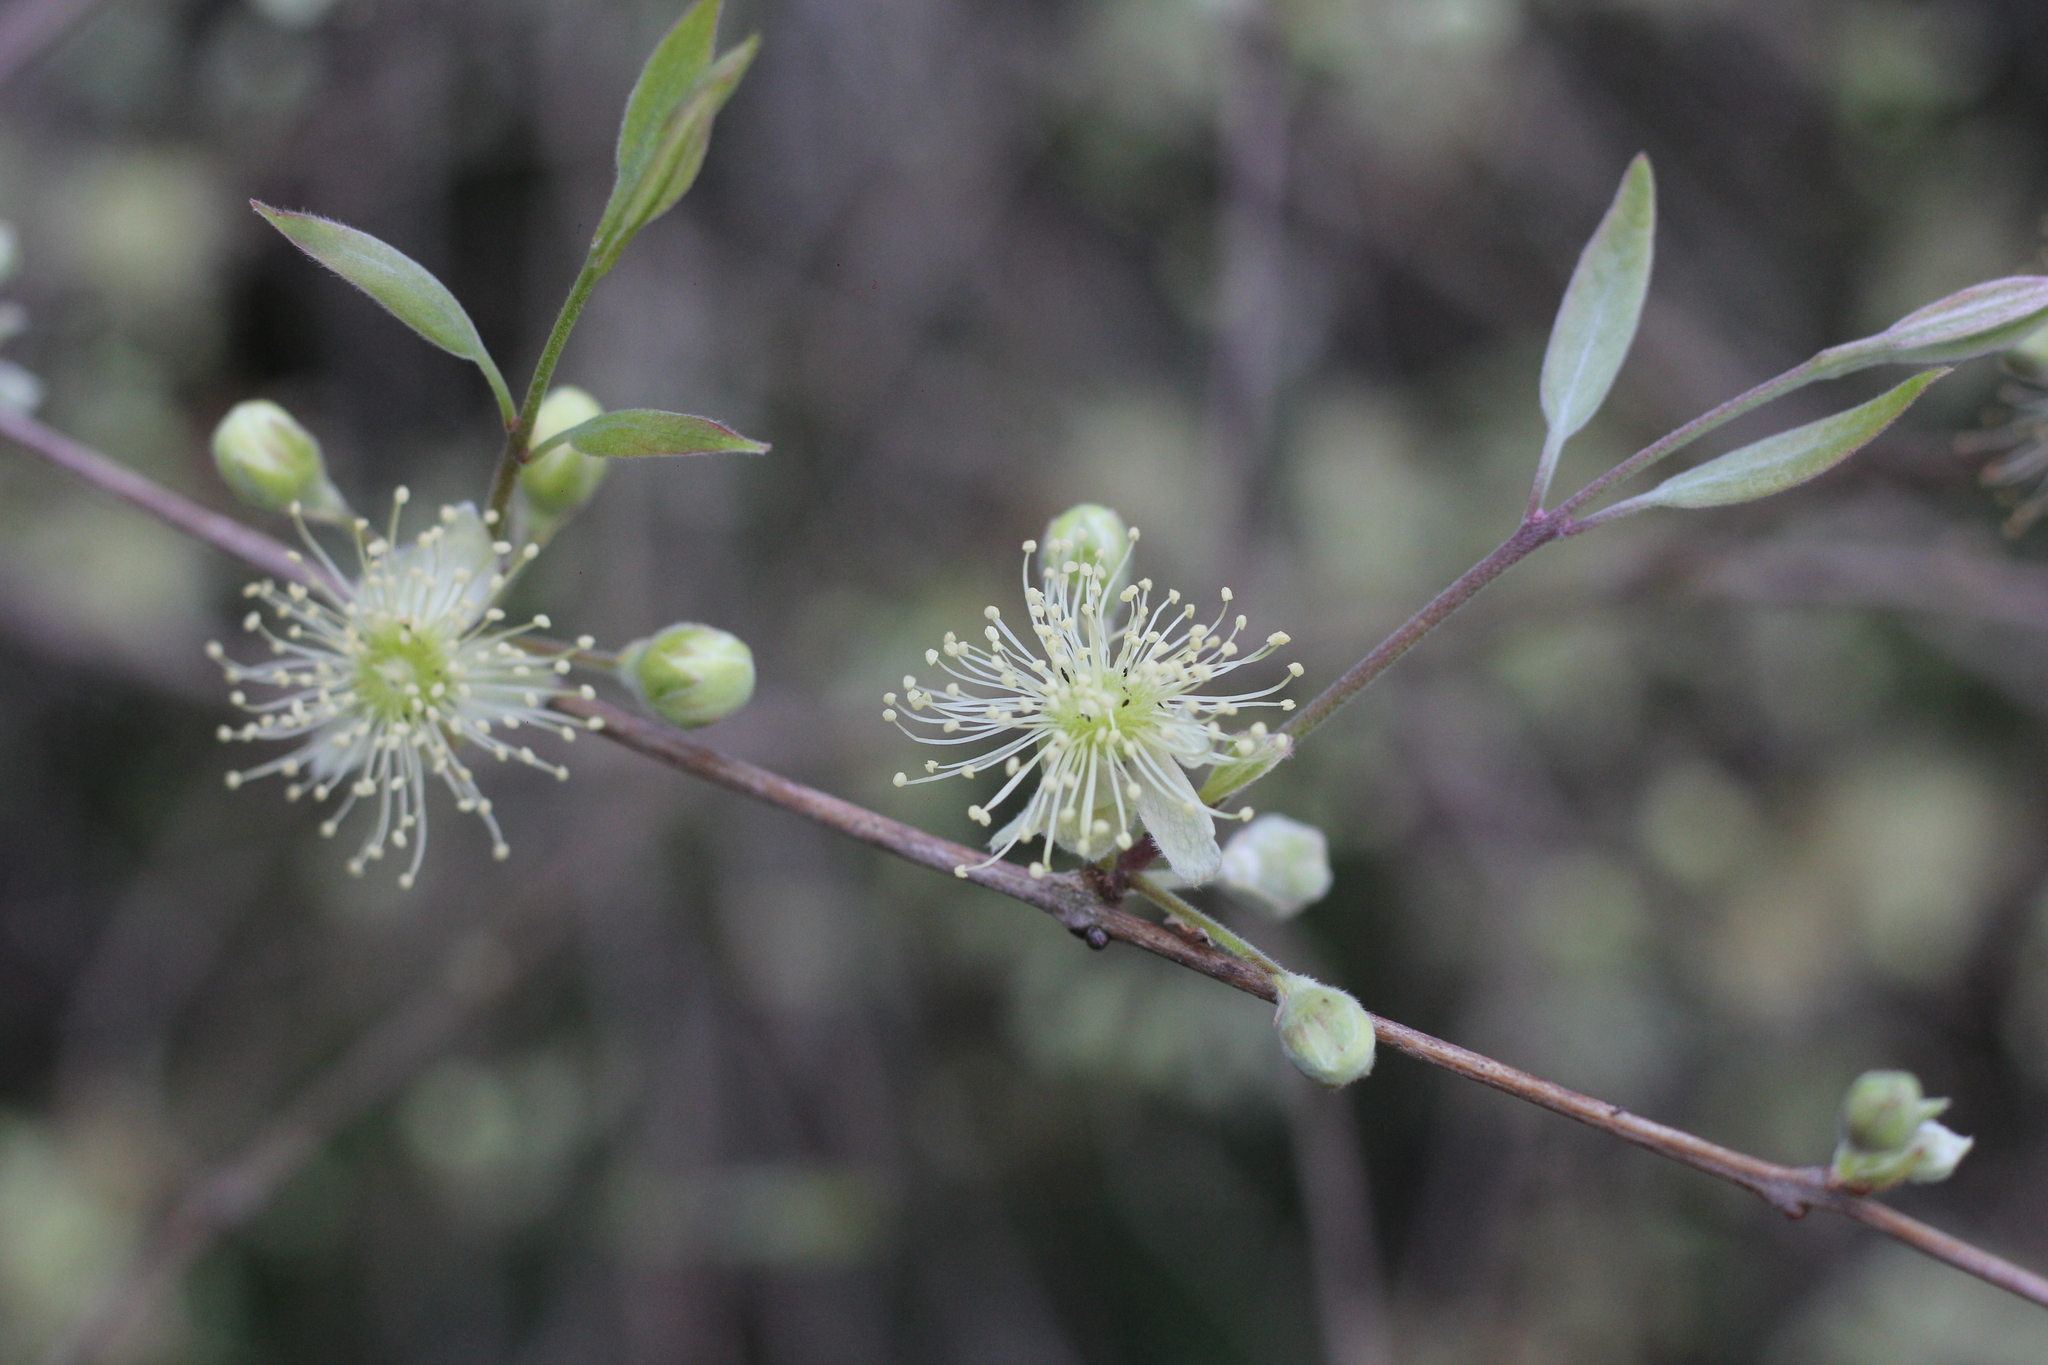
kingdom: Plantae
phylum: Tracheophyta
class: Magnoliopsida
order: Myrtales
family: Myrtaceae
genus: Eugenia
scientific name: Eugenia myrcianthes
